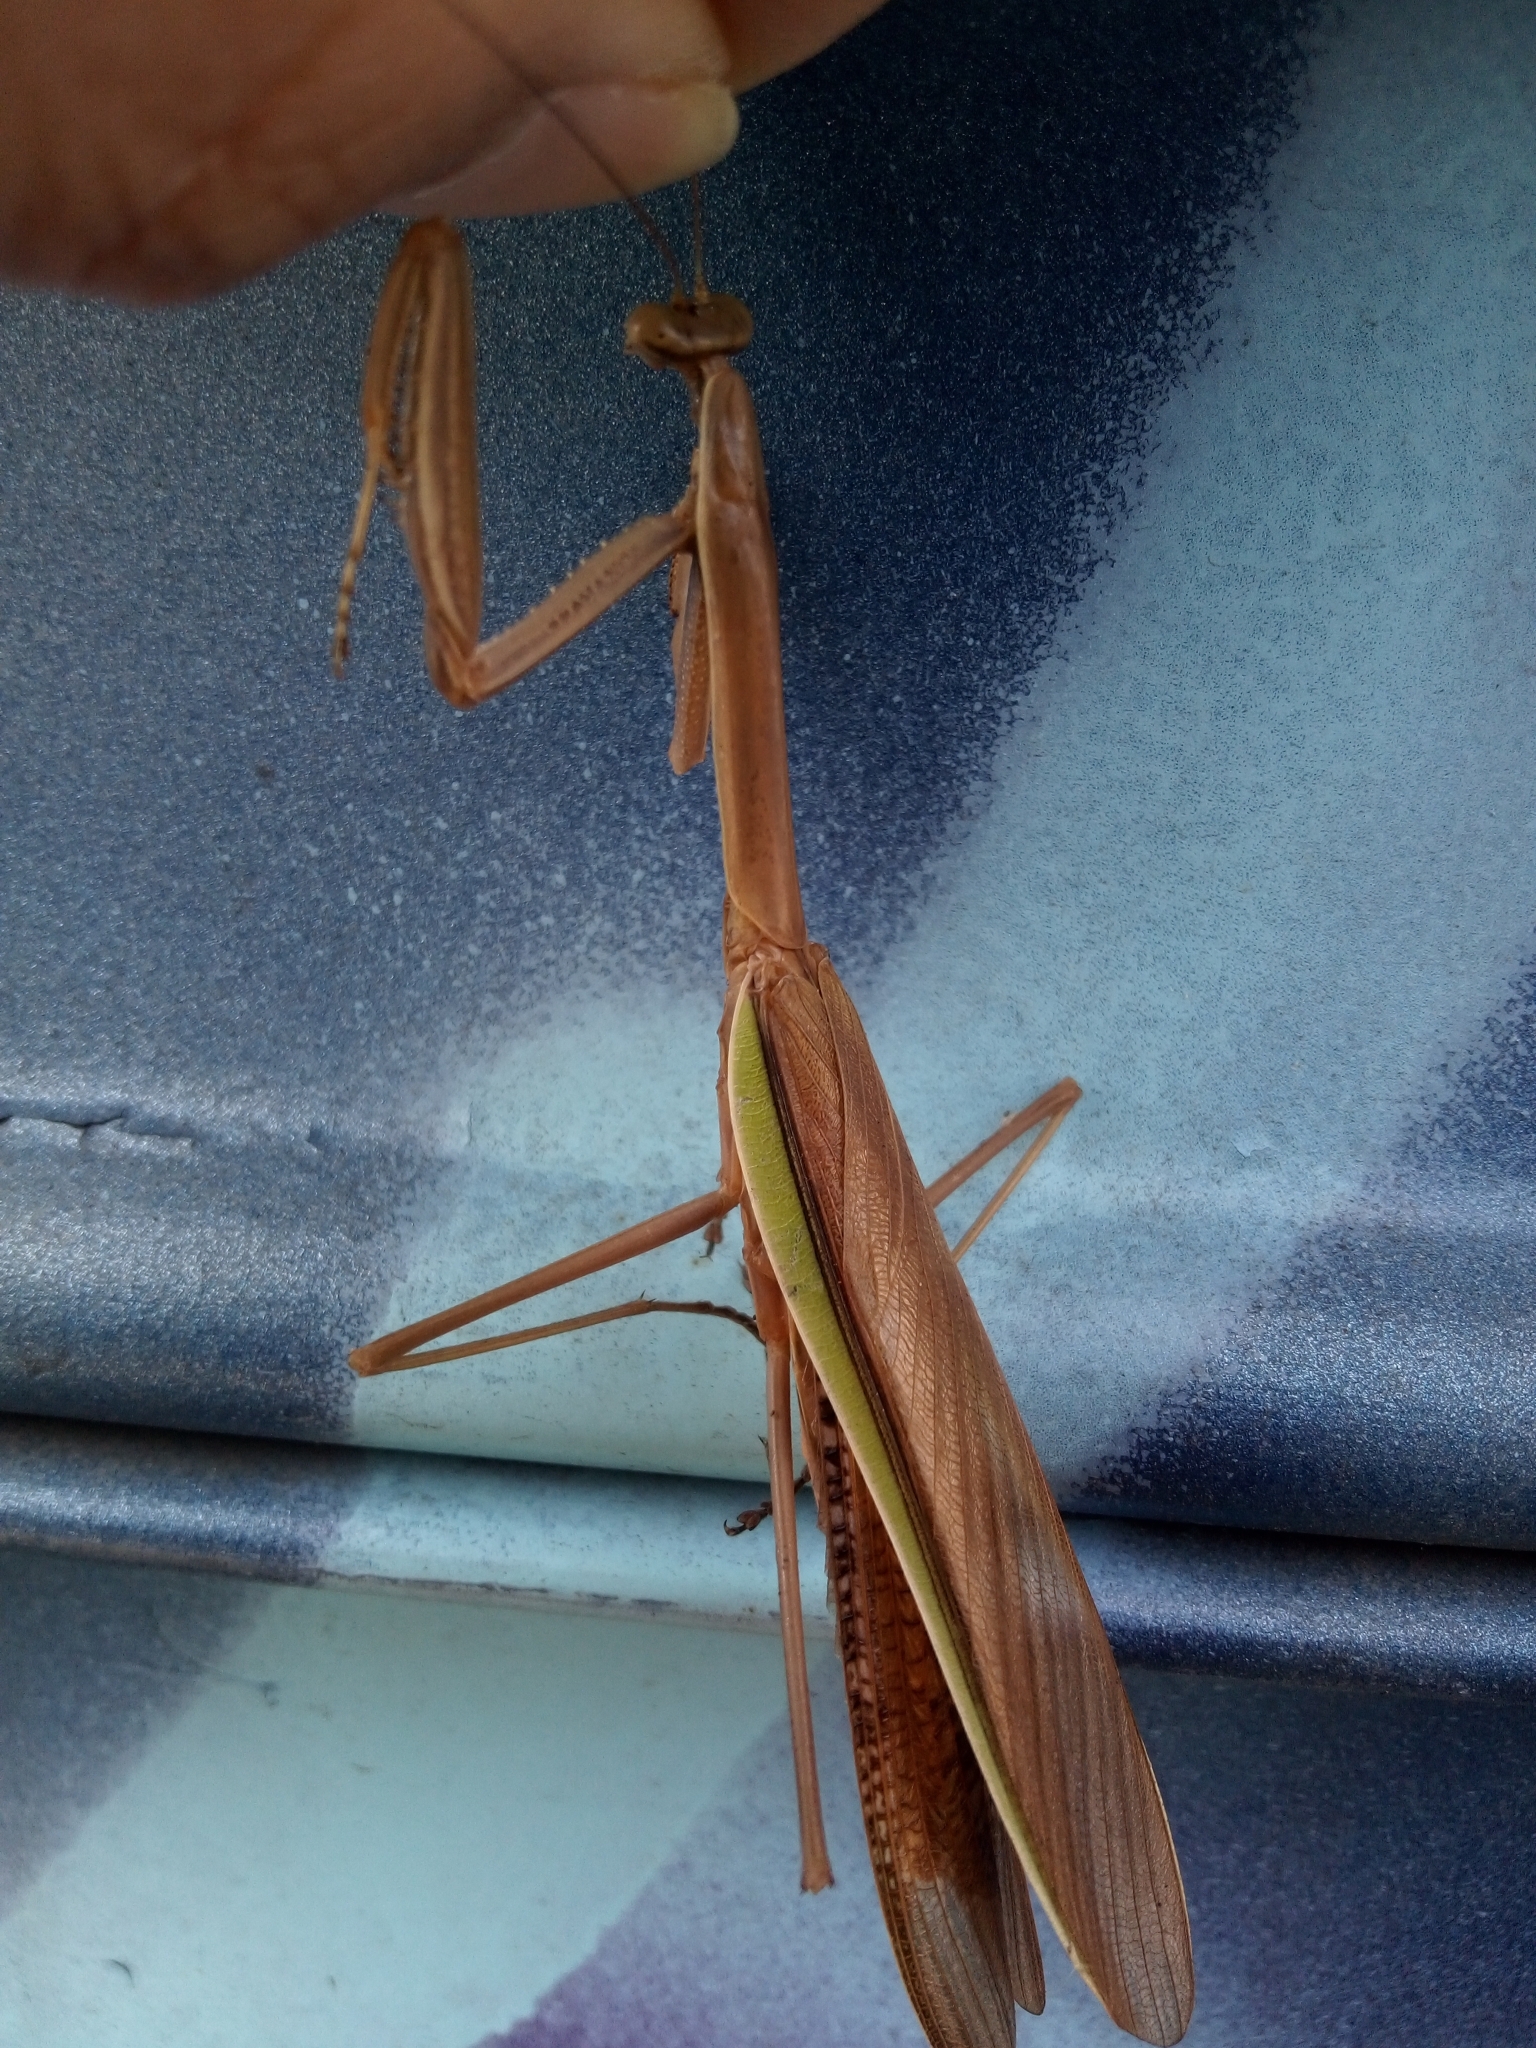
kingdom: Animalia
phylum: Arthropoda
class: Insecta
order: Mantodea
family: Mantidae
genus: Tenodera
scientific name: Tenodera angustipennis
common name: Asian mantis
